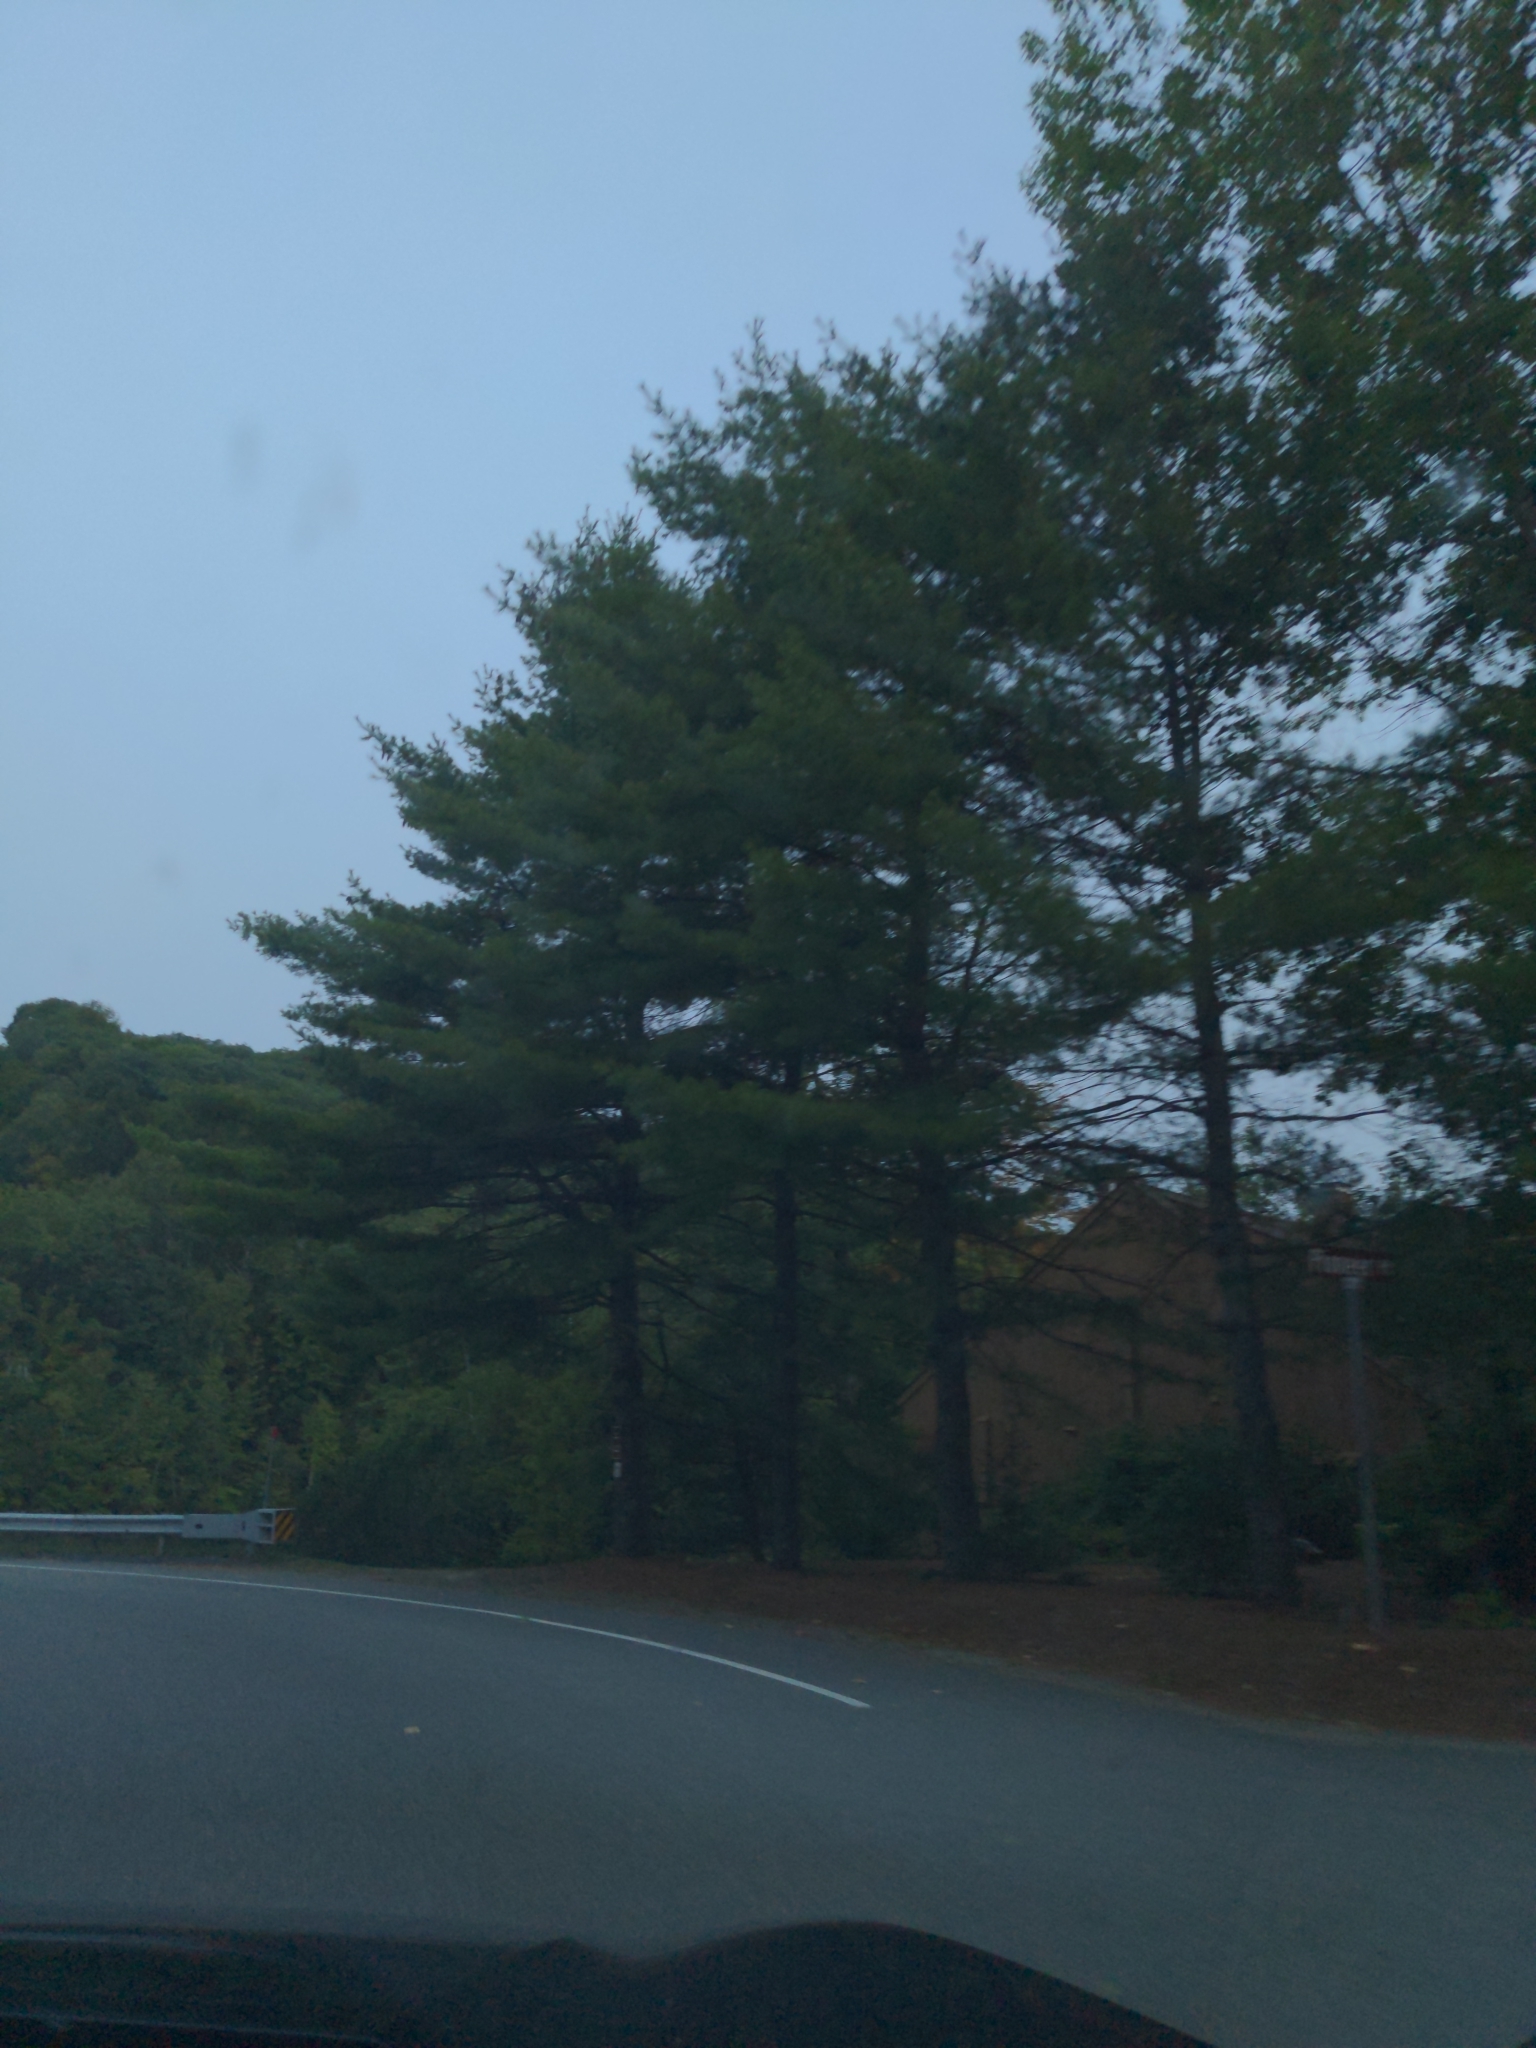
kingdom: Plantae
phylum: Tracheophyta
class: Pinopsida
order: Pinales
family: Pinaceae
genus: Pinus
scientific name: Pinus strobus
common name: Weymouth pine
